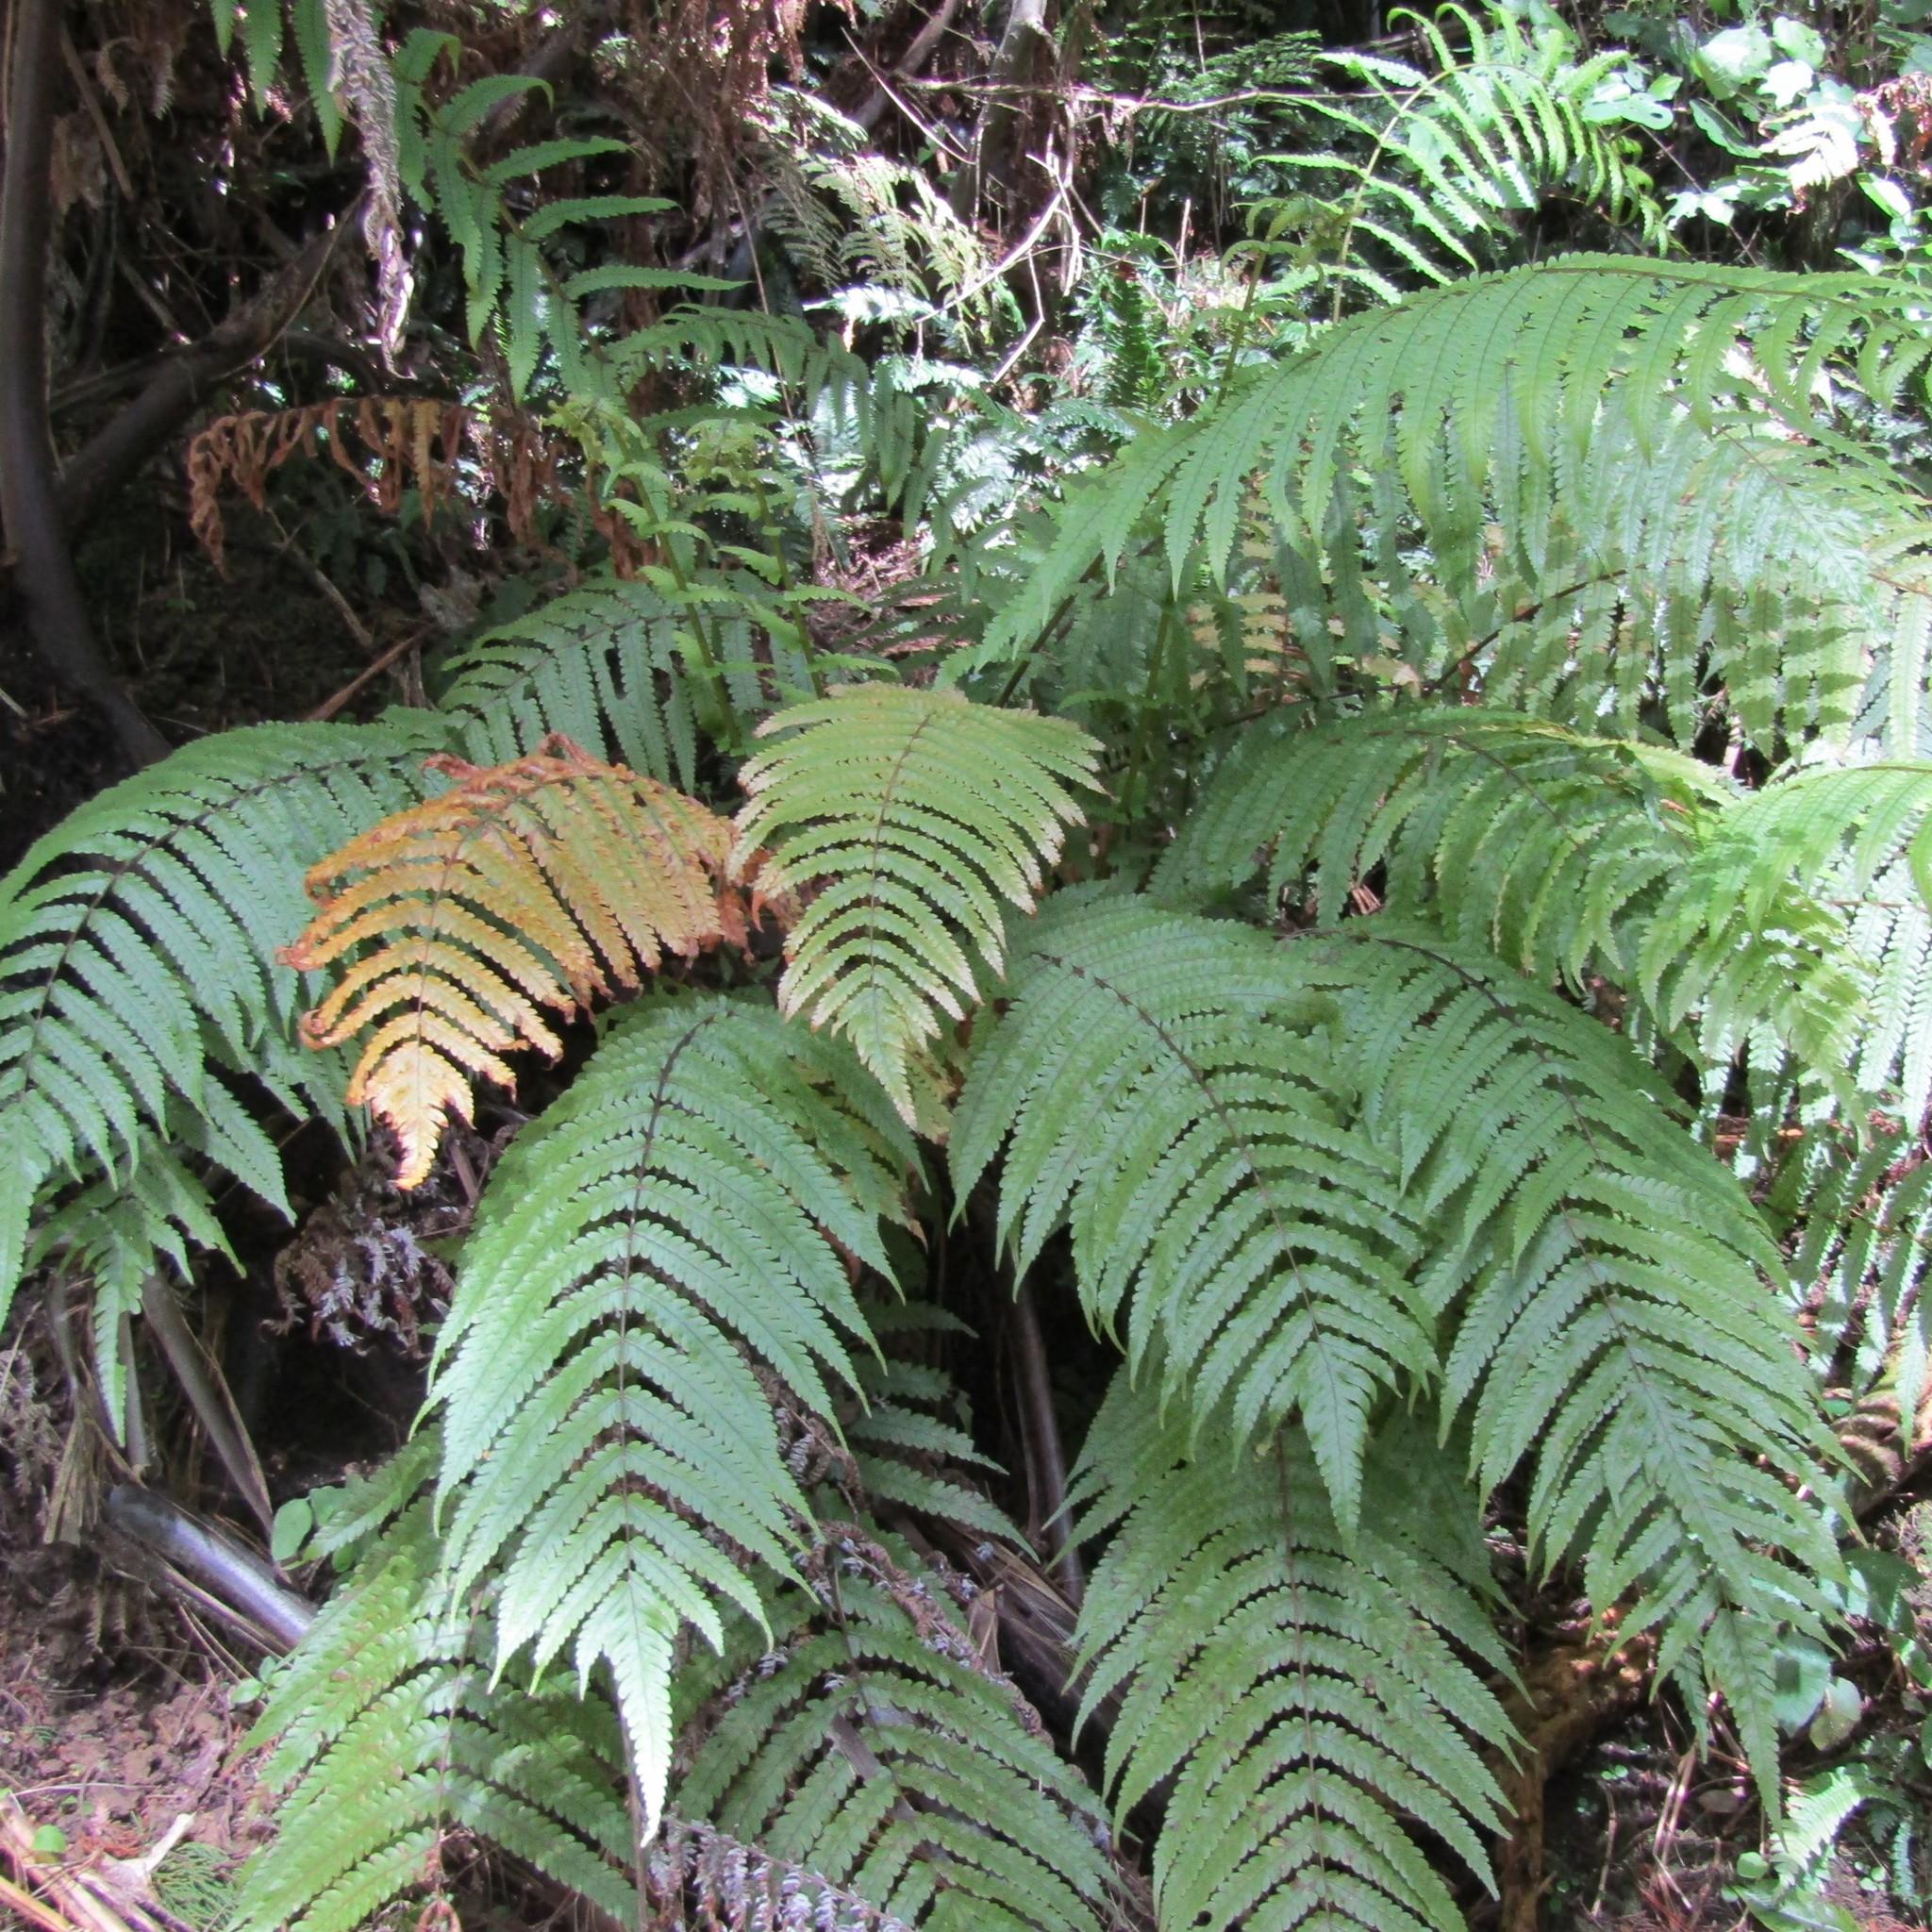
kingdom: Plantae
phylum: Tracheophyta
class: Polypodiopsida
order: Polypodiales
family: Thelypteridaceae
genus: Pakau
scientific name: Pakau pennigera
